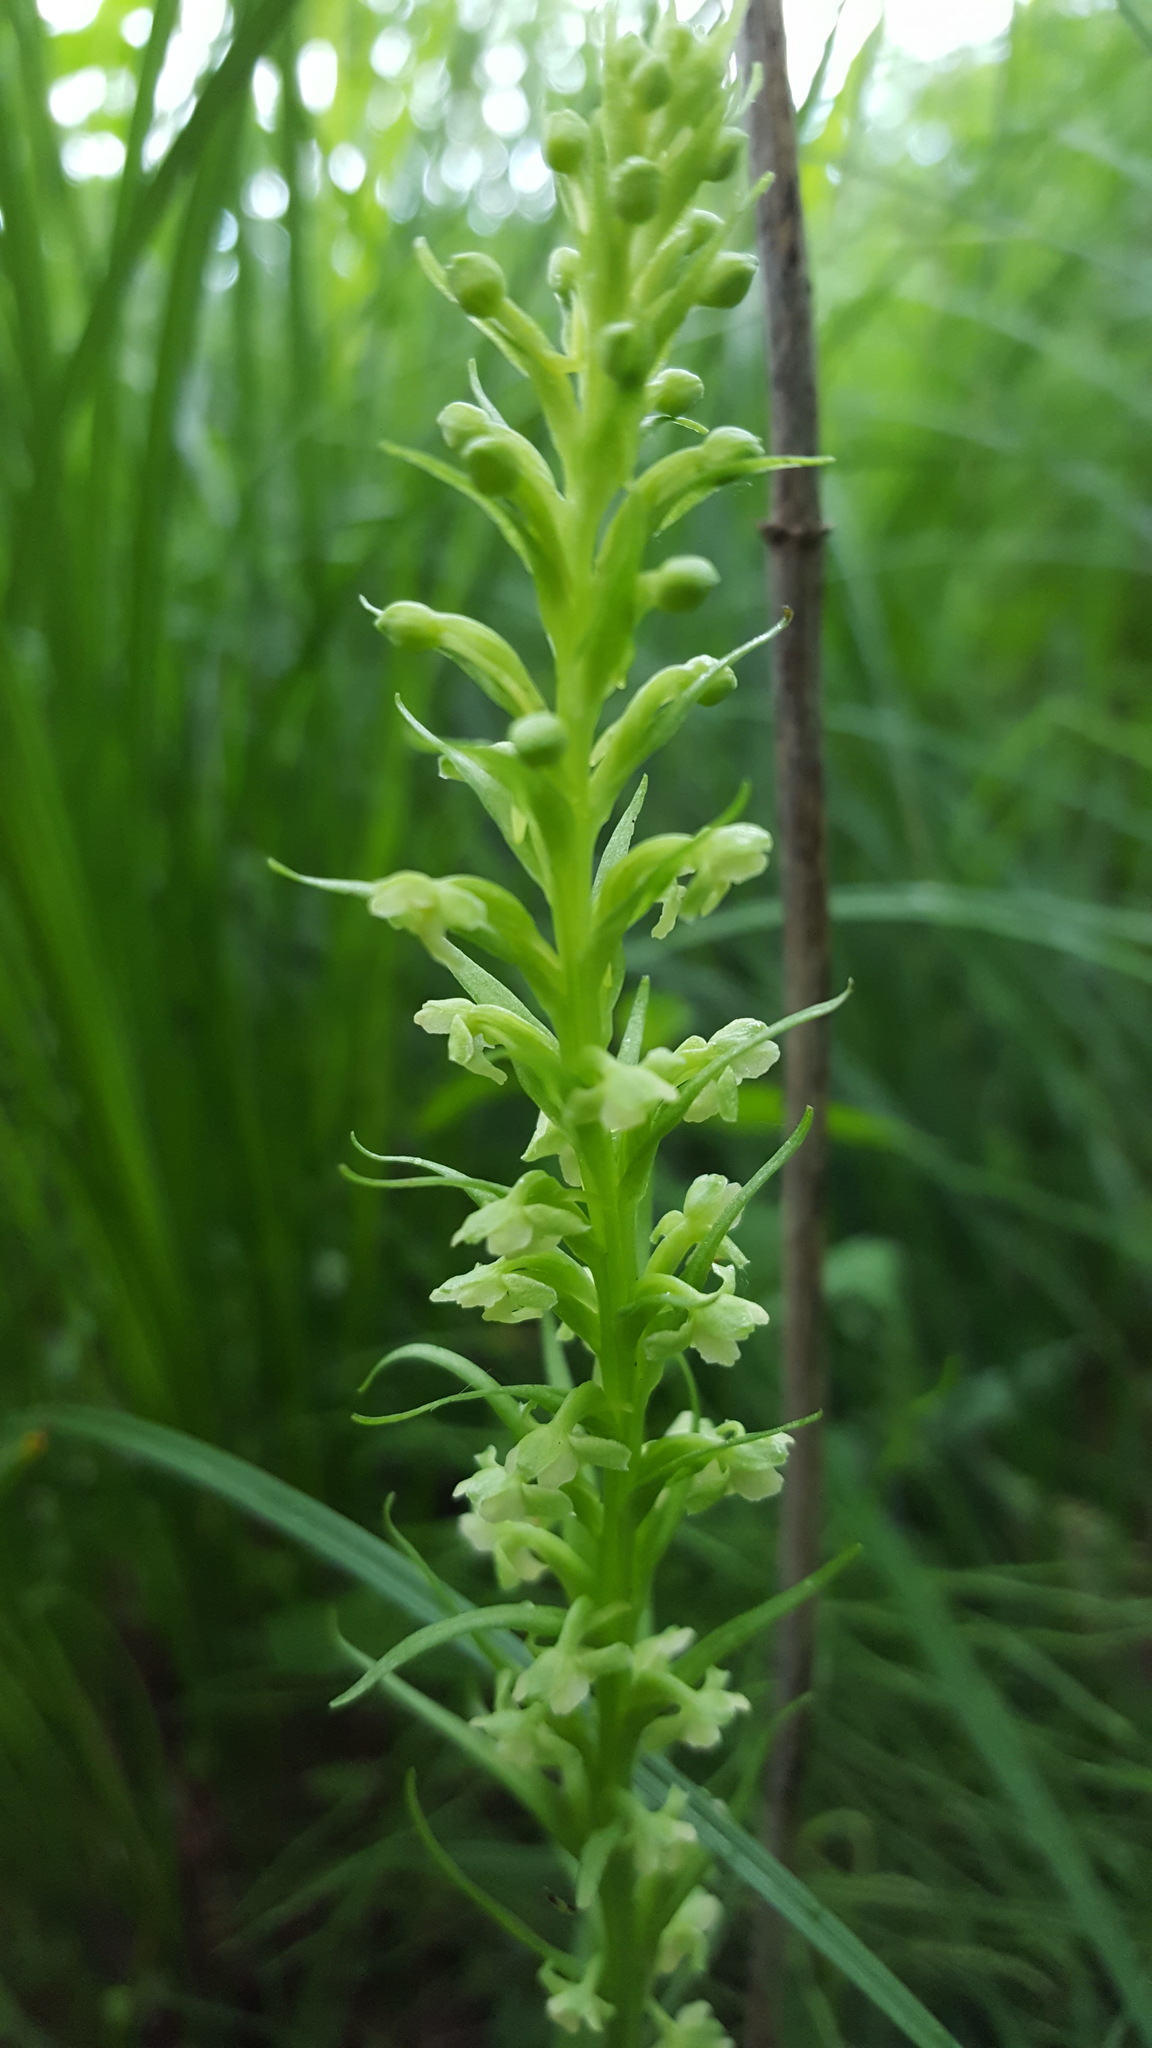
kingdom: Plantae
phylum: Tracheophyta
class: Liliopsida
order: Asparagales
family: Orchidaceae
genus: Platanthera
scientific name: Platanthera flava
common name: Gypsy-spikes
